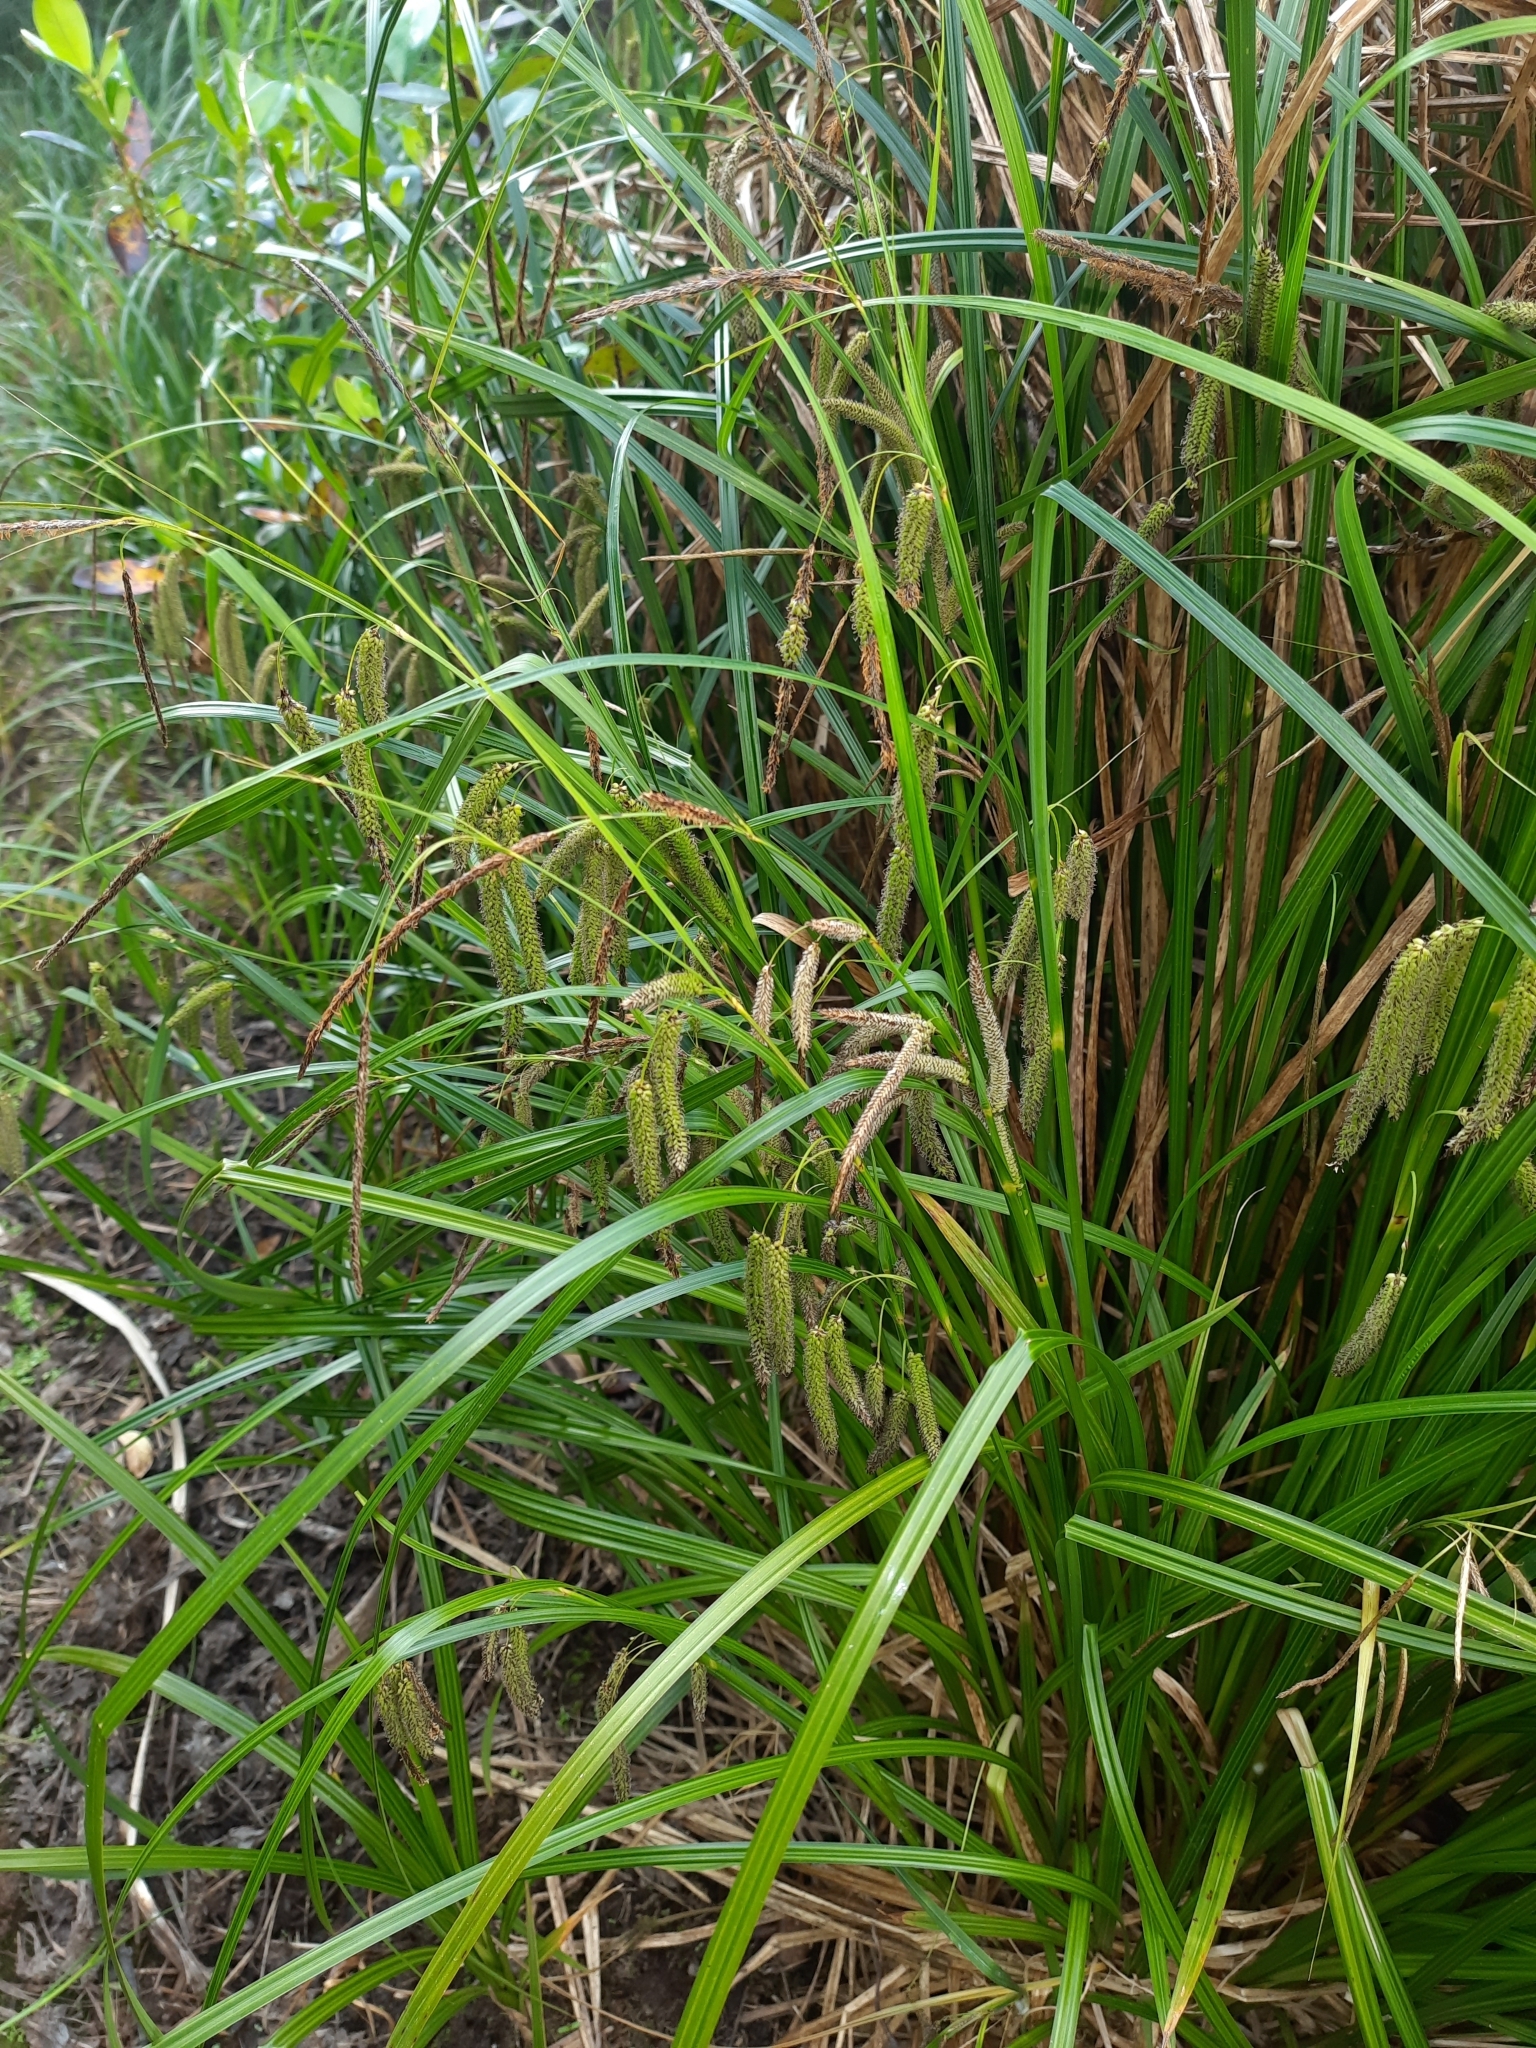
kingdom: Plantae
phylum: Tracheophyta
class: Liliopsida
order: Poales
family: Cyperaceae
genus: Carex
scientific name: Carex geminata
